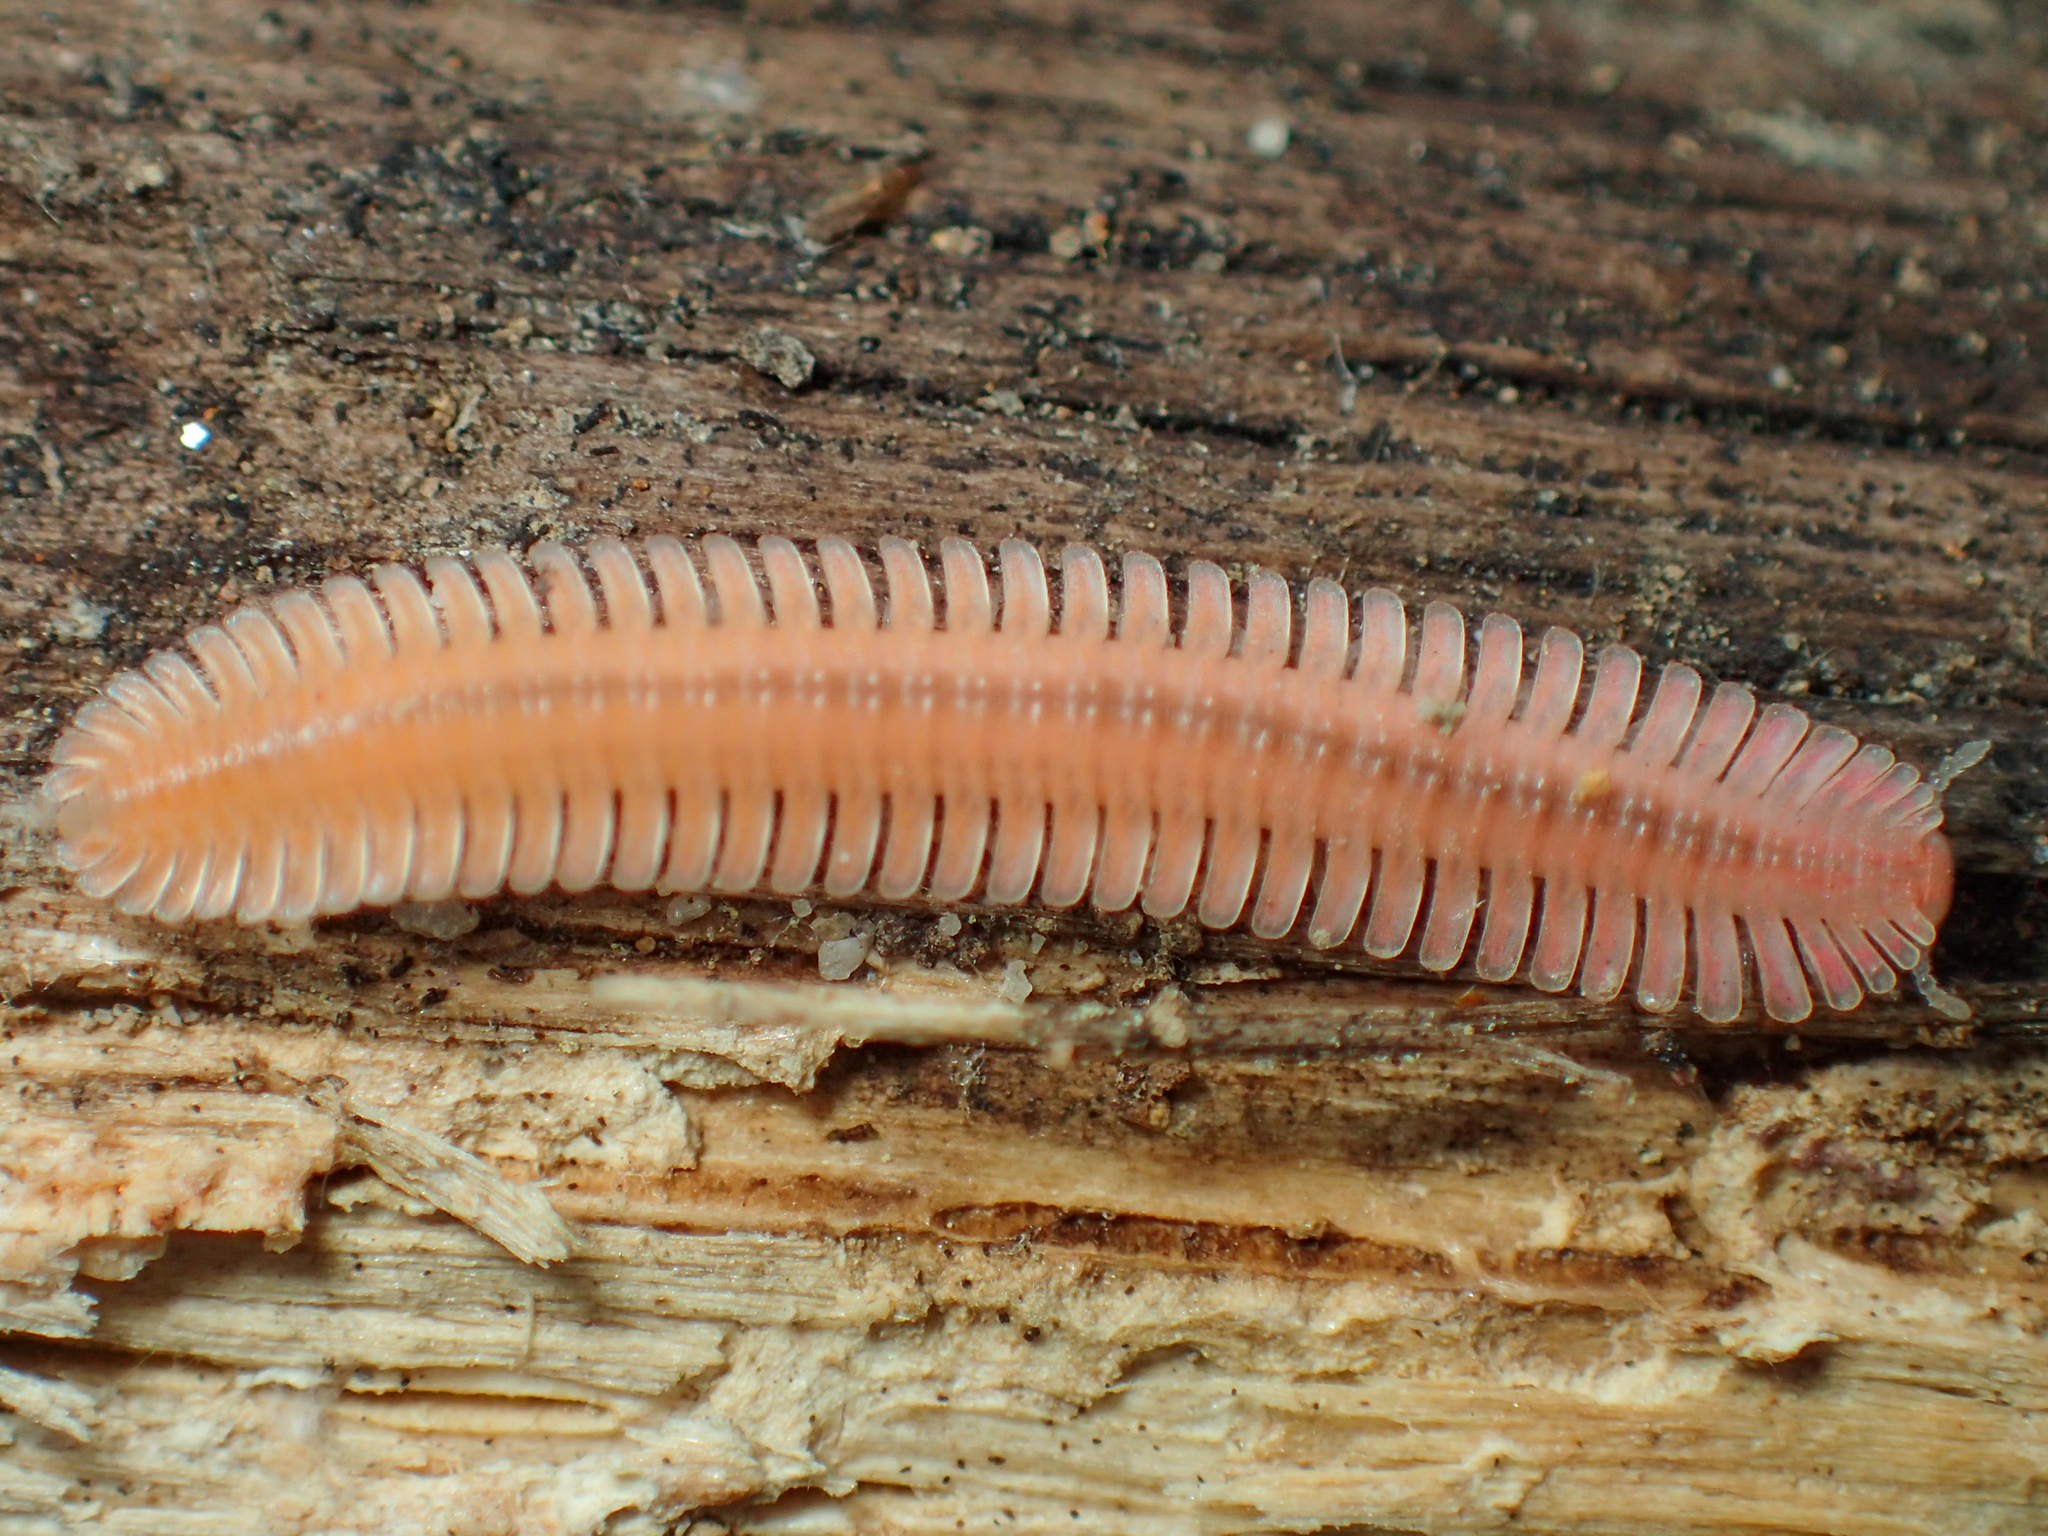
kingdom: Animalia
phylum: Arthropoda
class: Diplopoda
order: Platydesmida
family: Andrognathidae
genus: Brachycybe
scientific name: Brachycybe lecontii
